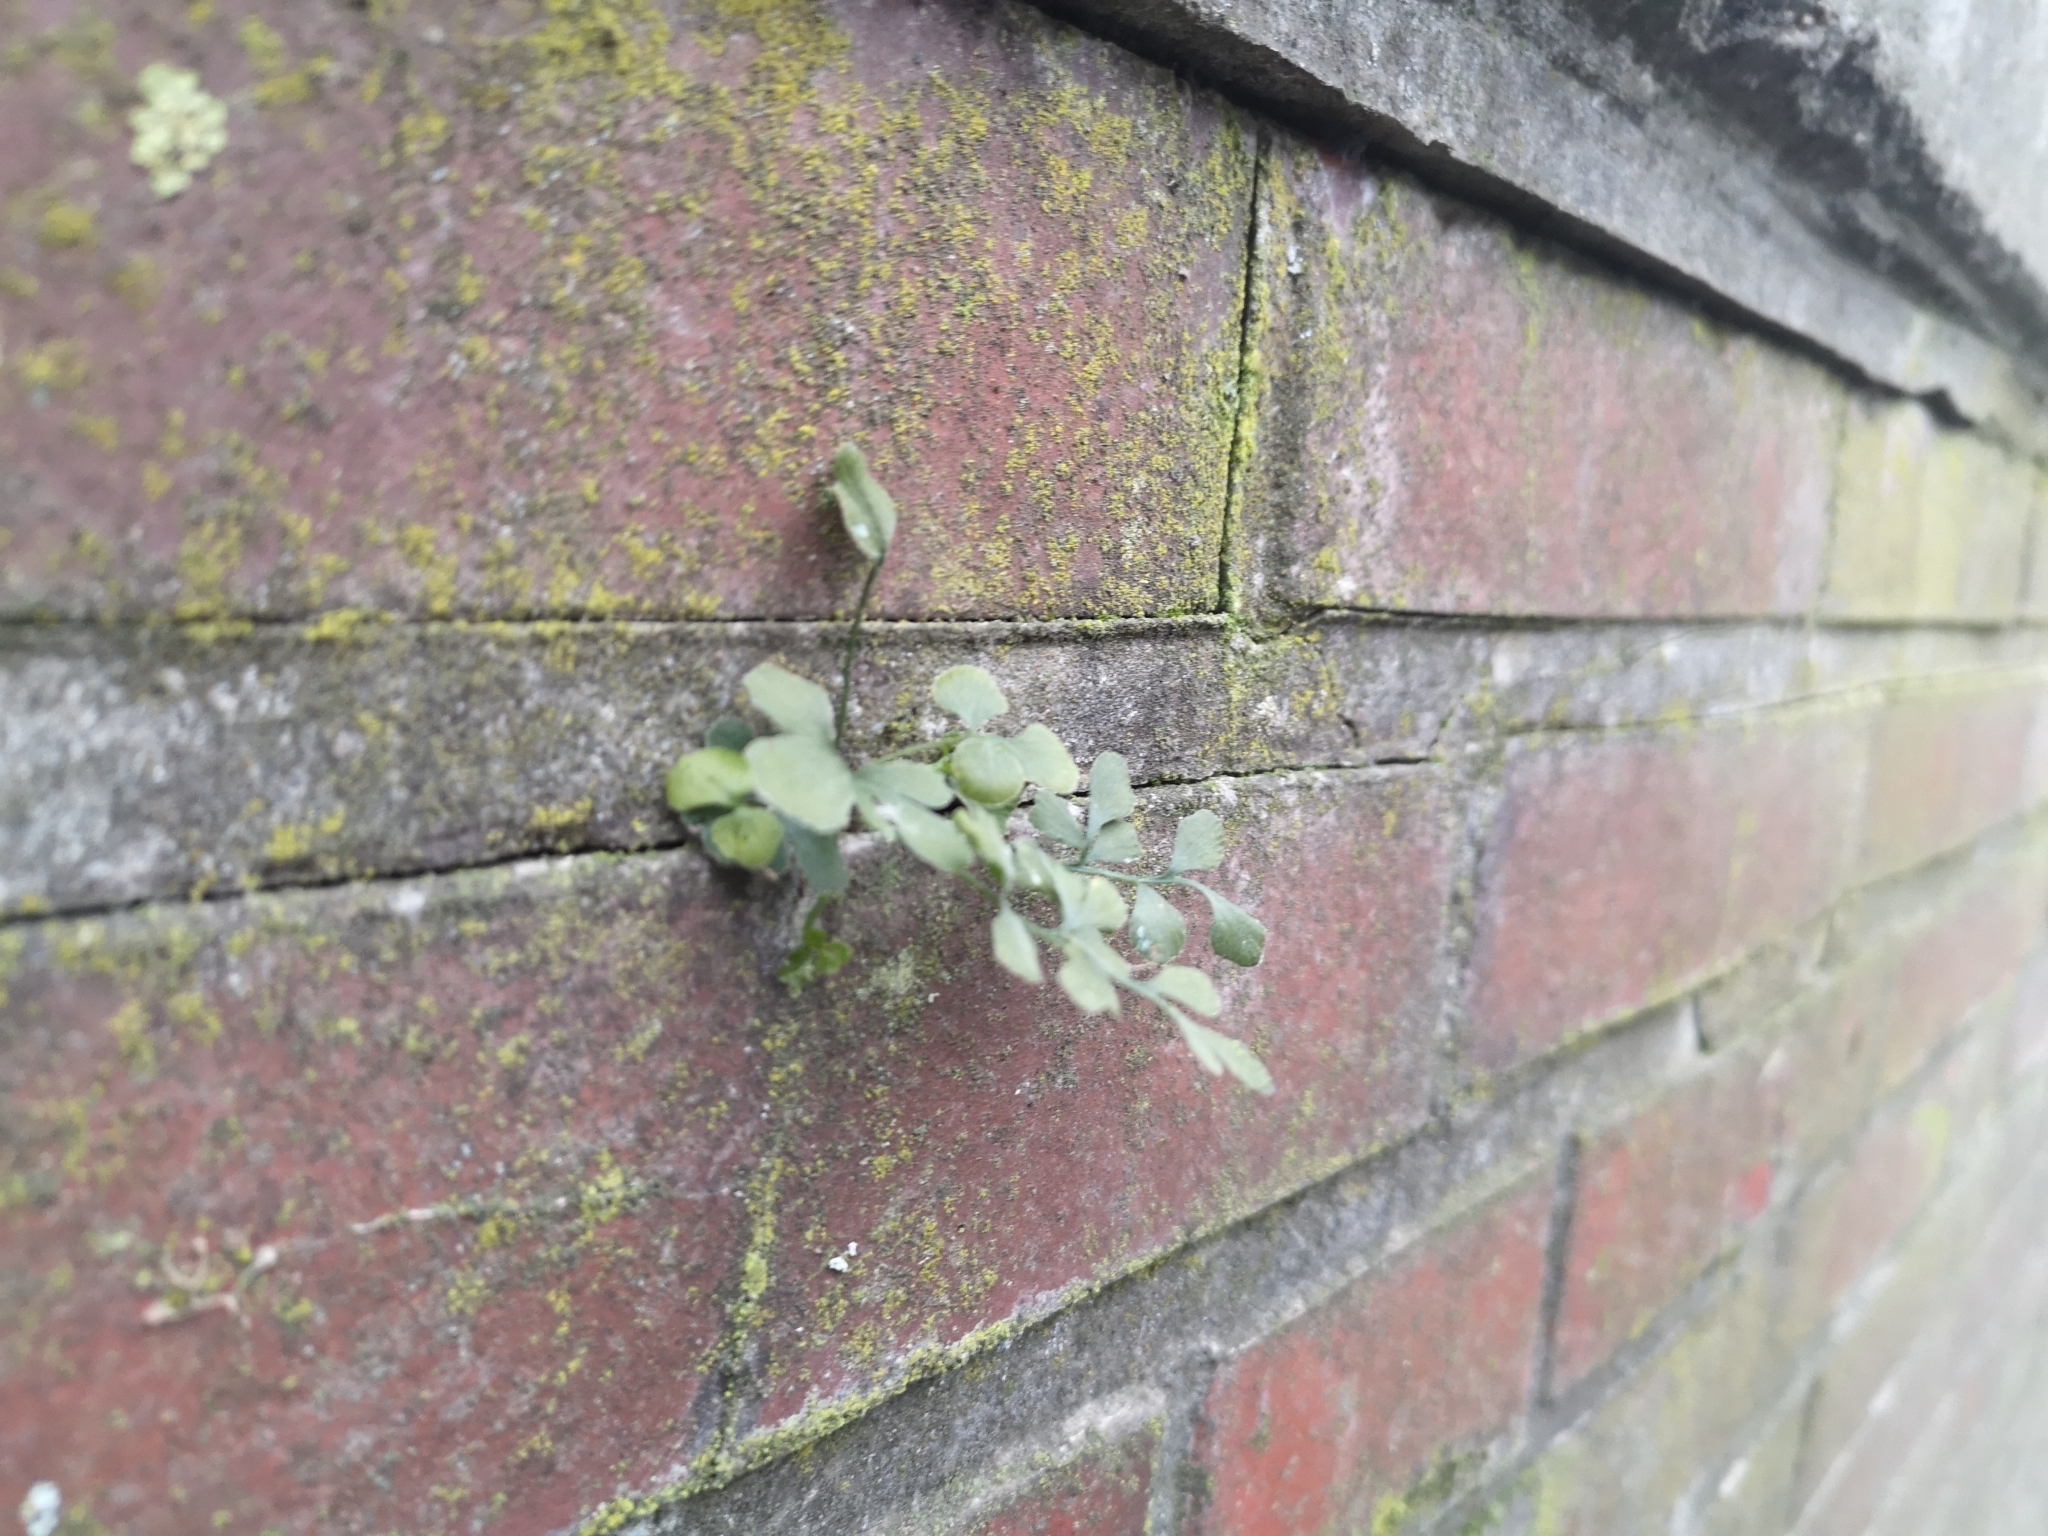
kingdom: Plantae
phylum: Tracheophyta
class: Polypodiopsida
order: Polypodiales
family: Aspleniaceae
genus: Asplenium
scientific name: Asplenium ruta-muraria
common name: Wall-rue
